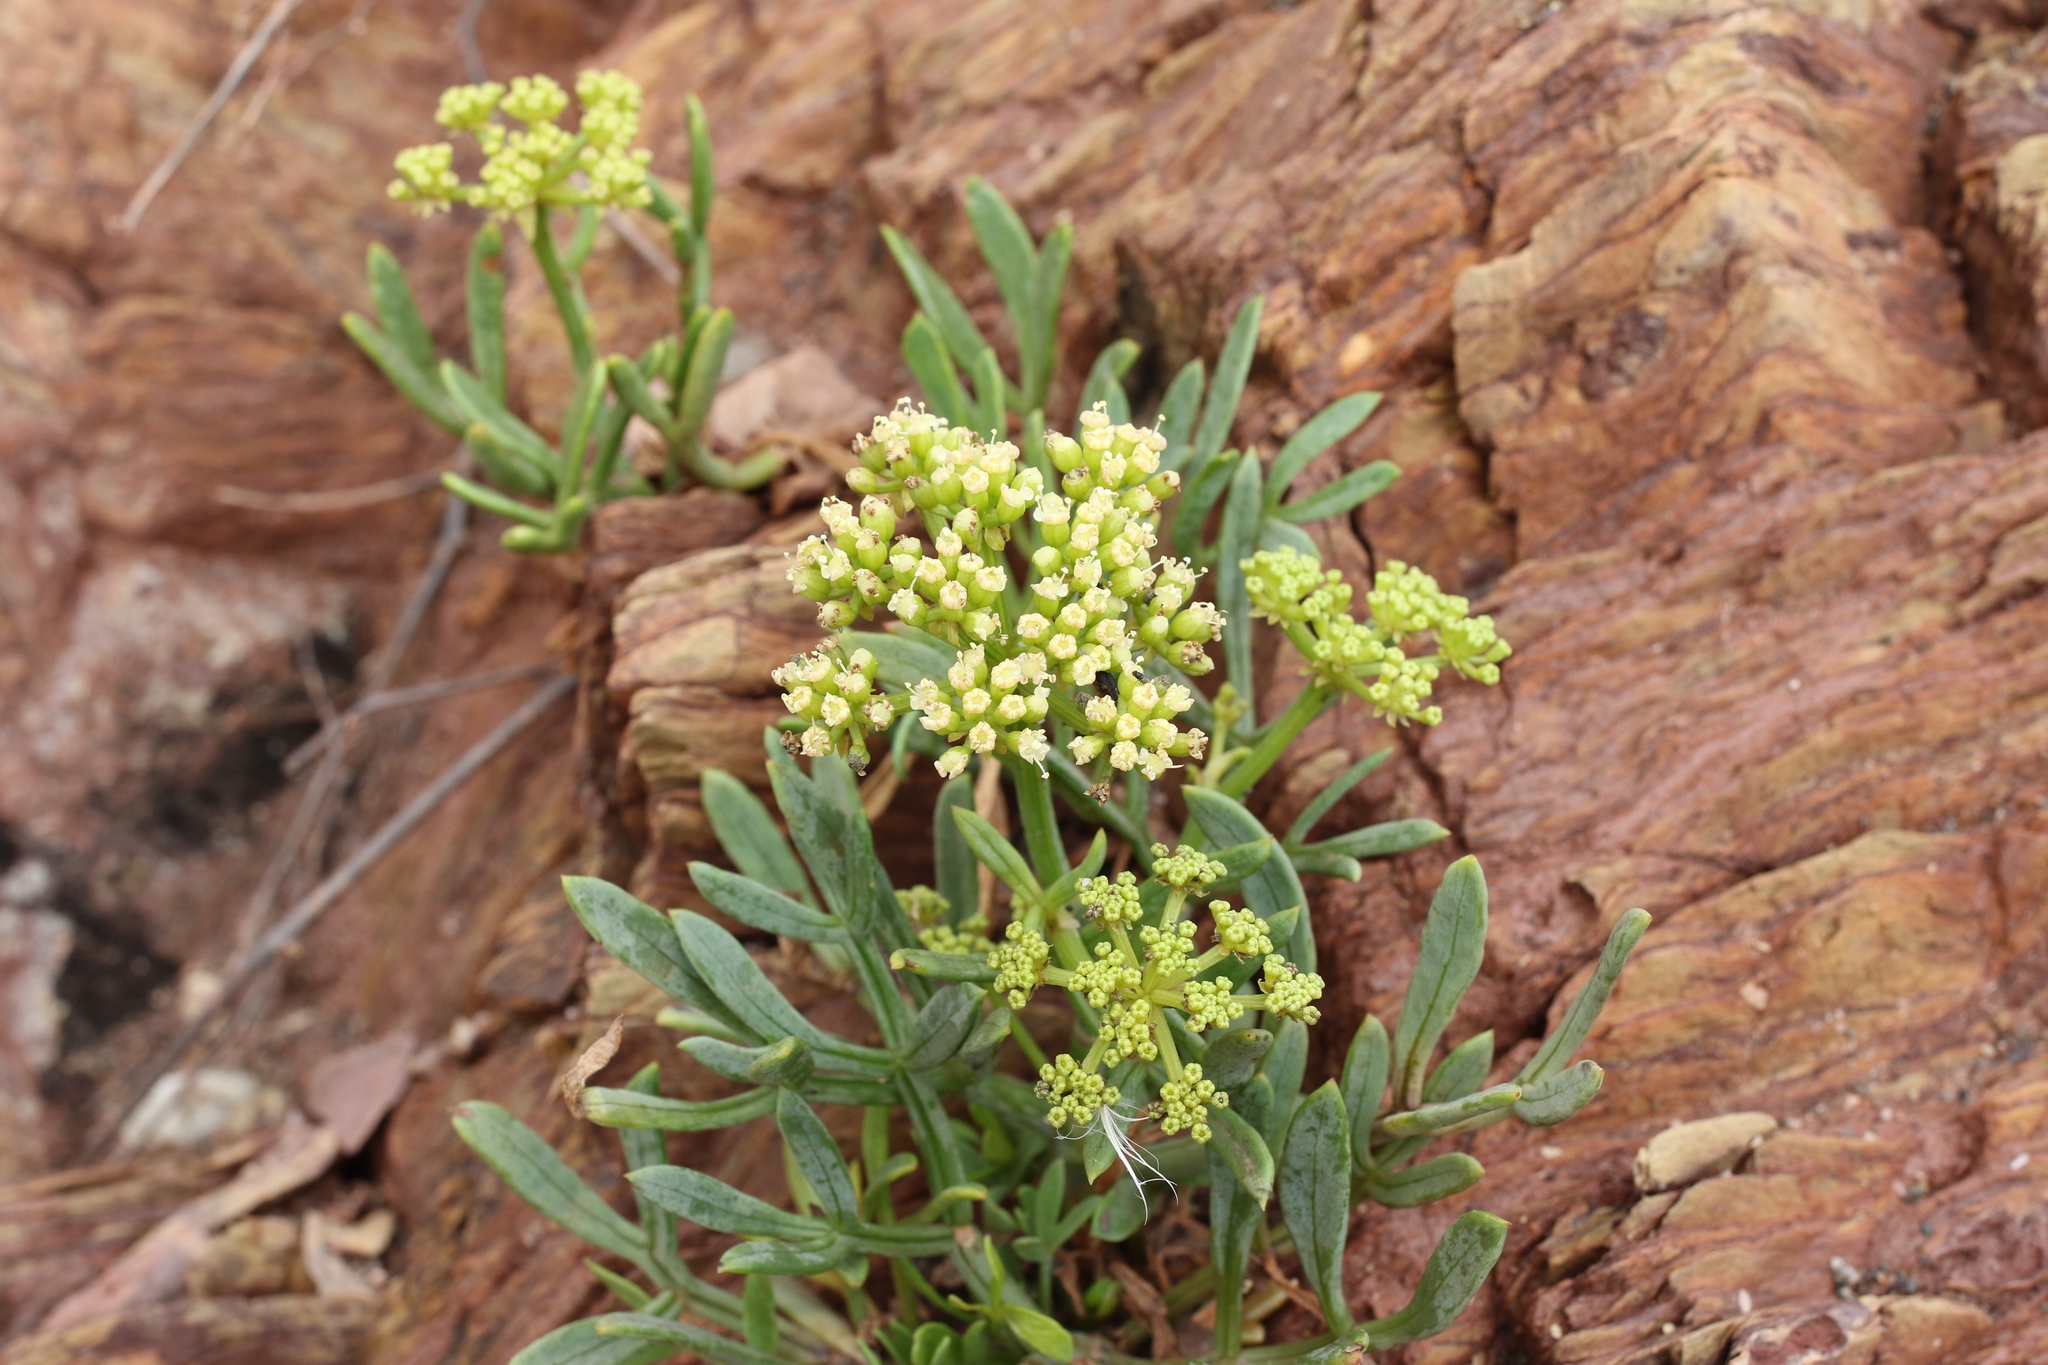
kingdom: Plantae
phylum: Tracheophyta
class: Magnoliopsida
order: Apiales
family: Apiaceae
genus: Crithmum
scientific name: Crithmum maritimum
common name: Rock samphire
